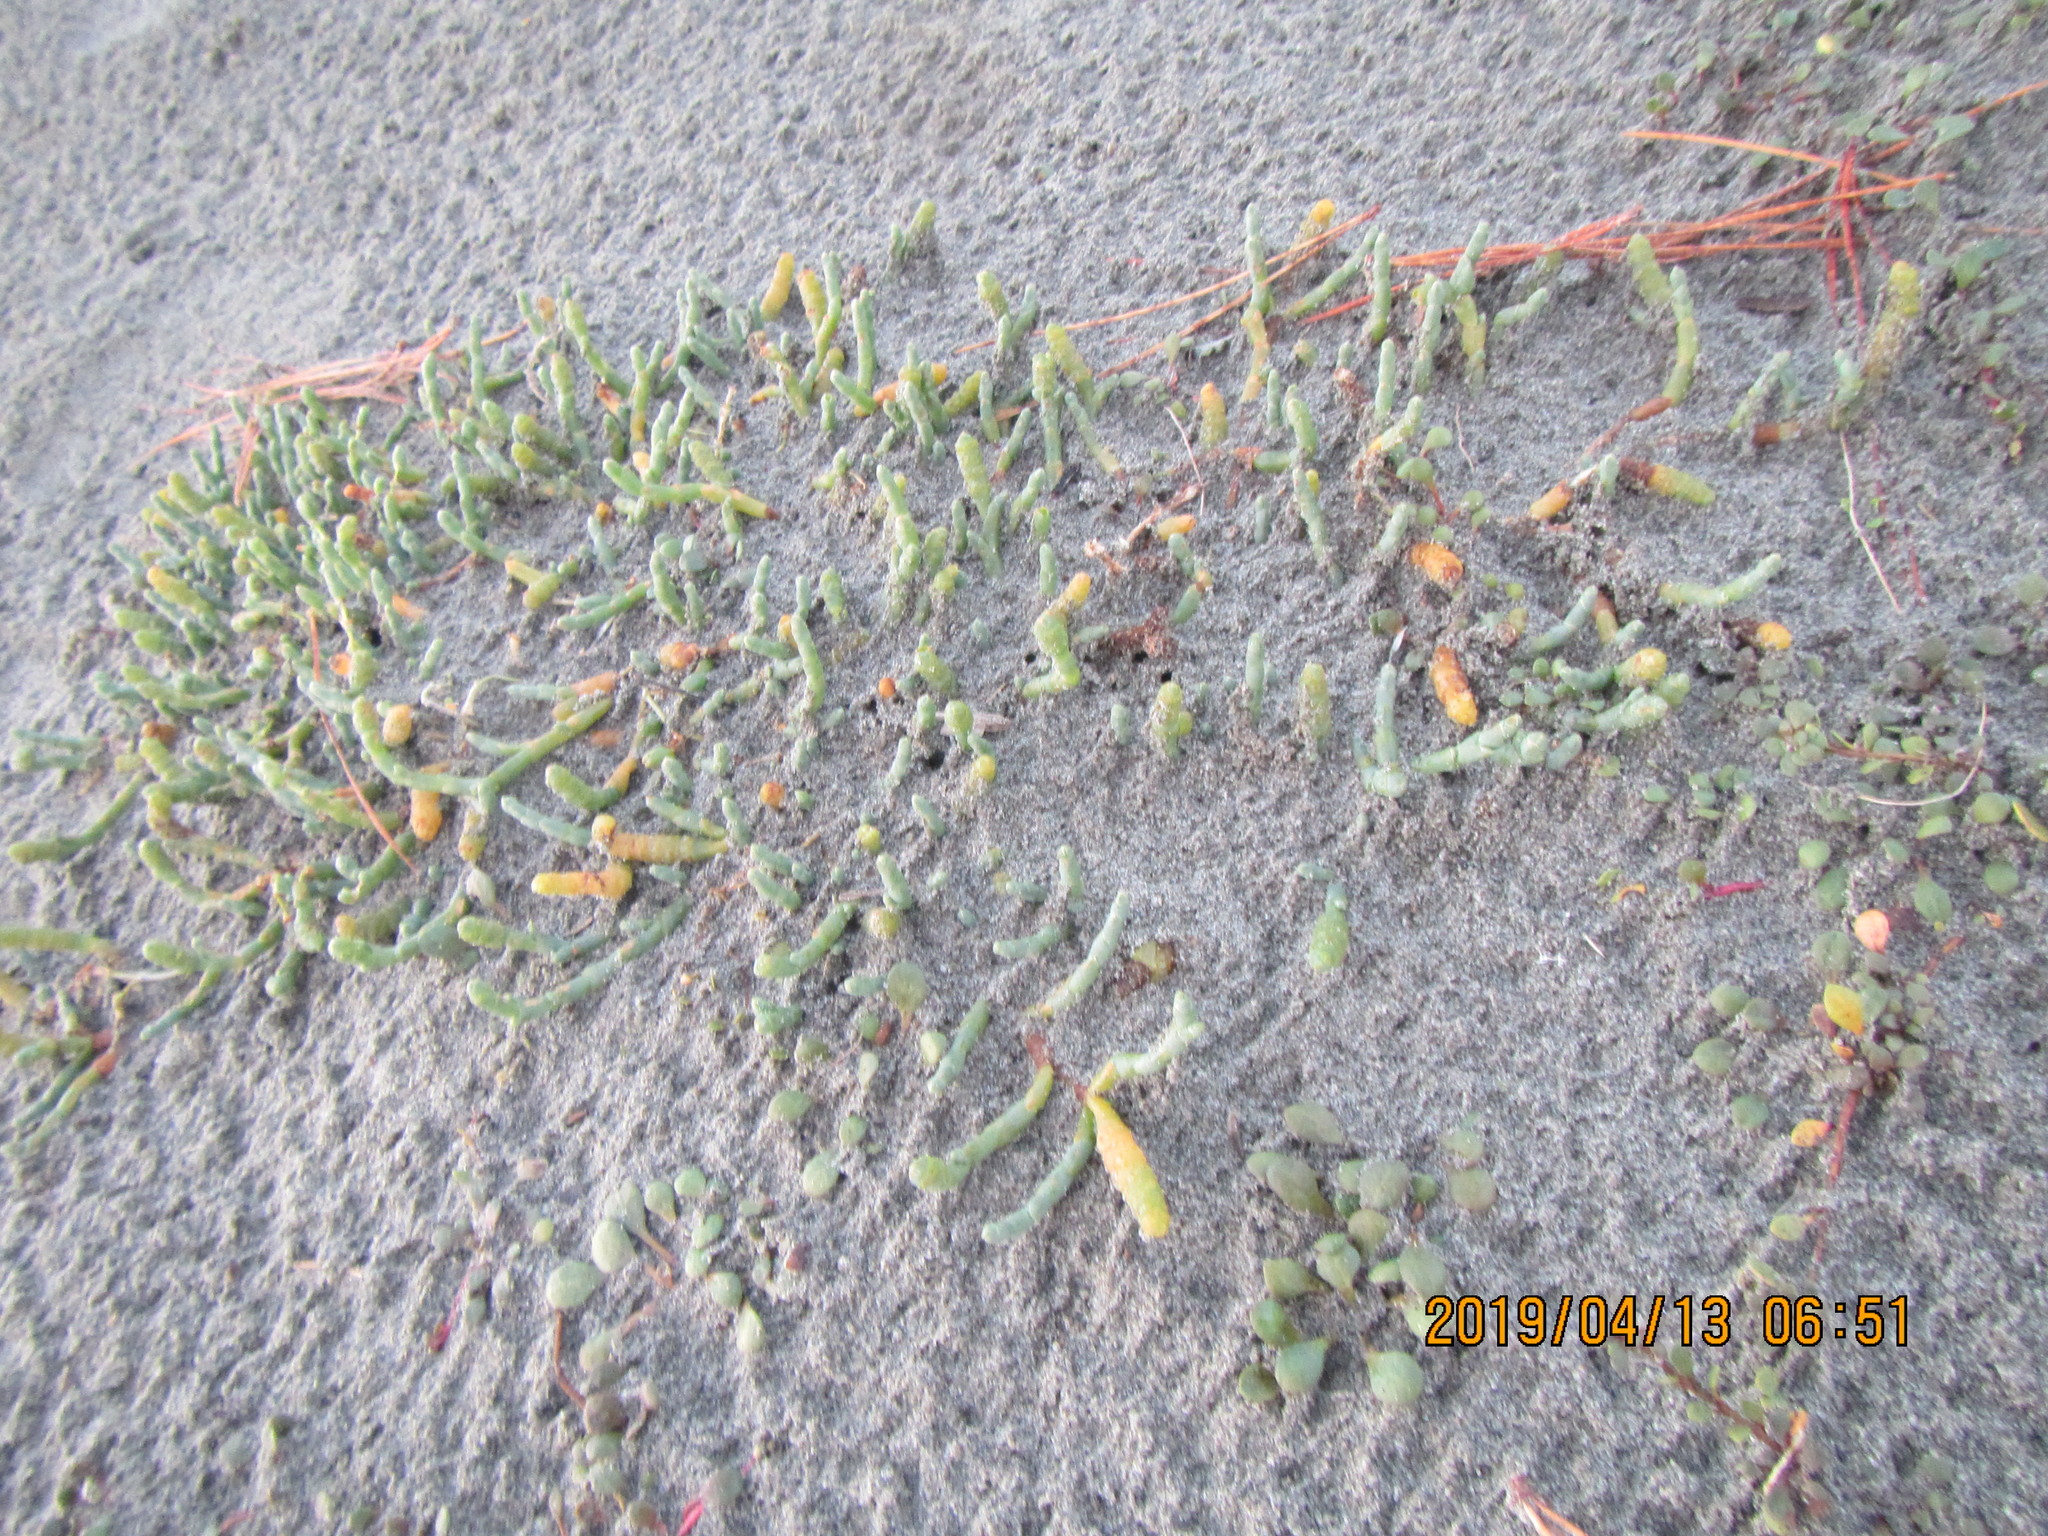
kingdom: Plantae
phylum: Tracheophyta
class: Magnoliopsida
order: Caryophyllales
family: Amaranthaceae
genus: Salicornia
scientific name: Salicornia quinqueflora
